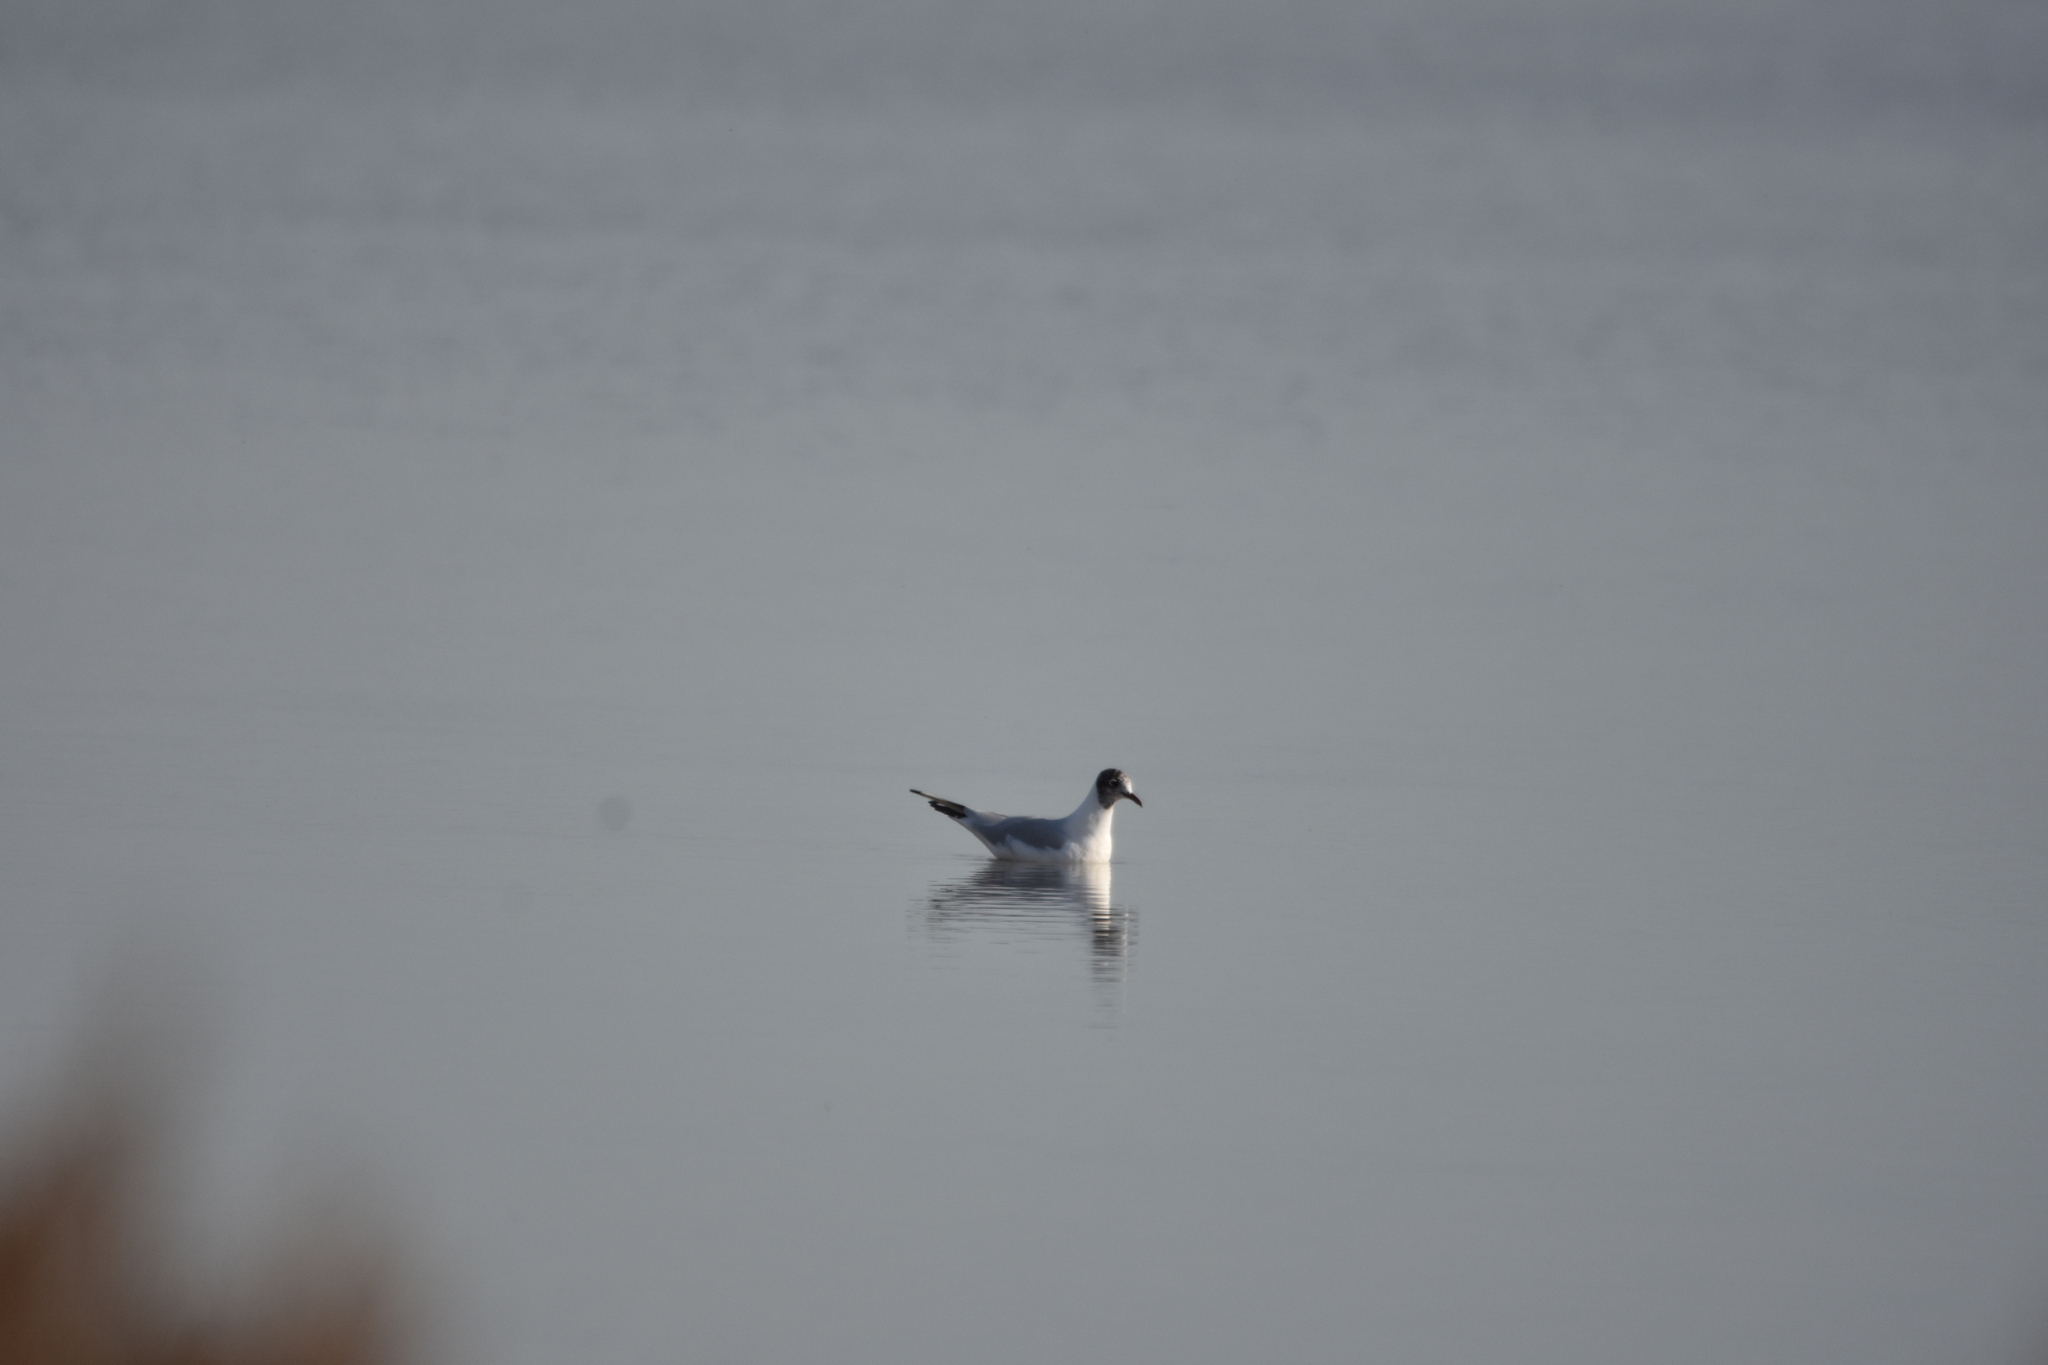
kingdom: Animalia
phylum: Chordata
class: Aves
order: Charadriiformes
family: Laridae
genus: Chroicocephalus
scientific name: Chroicocephalus ridibundus
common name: Black-headed gull
